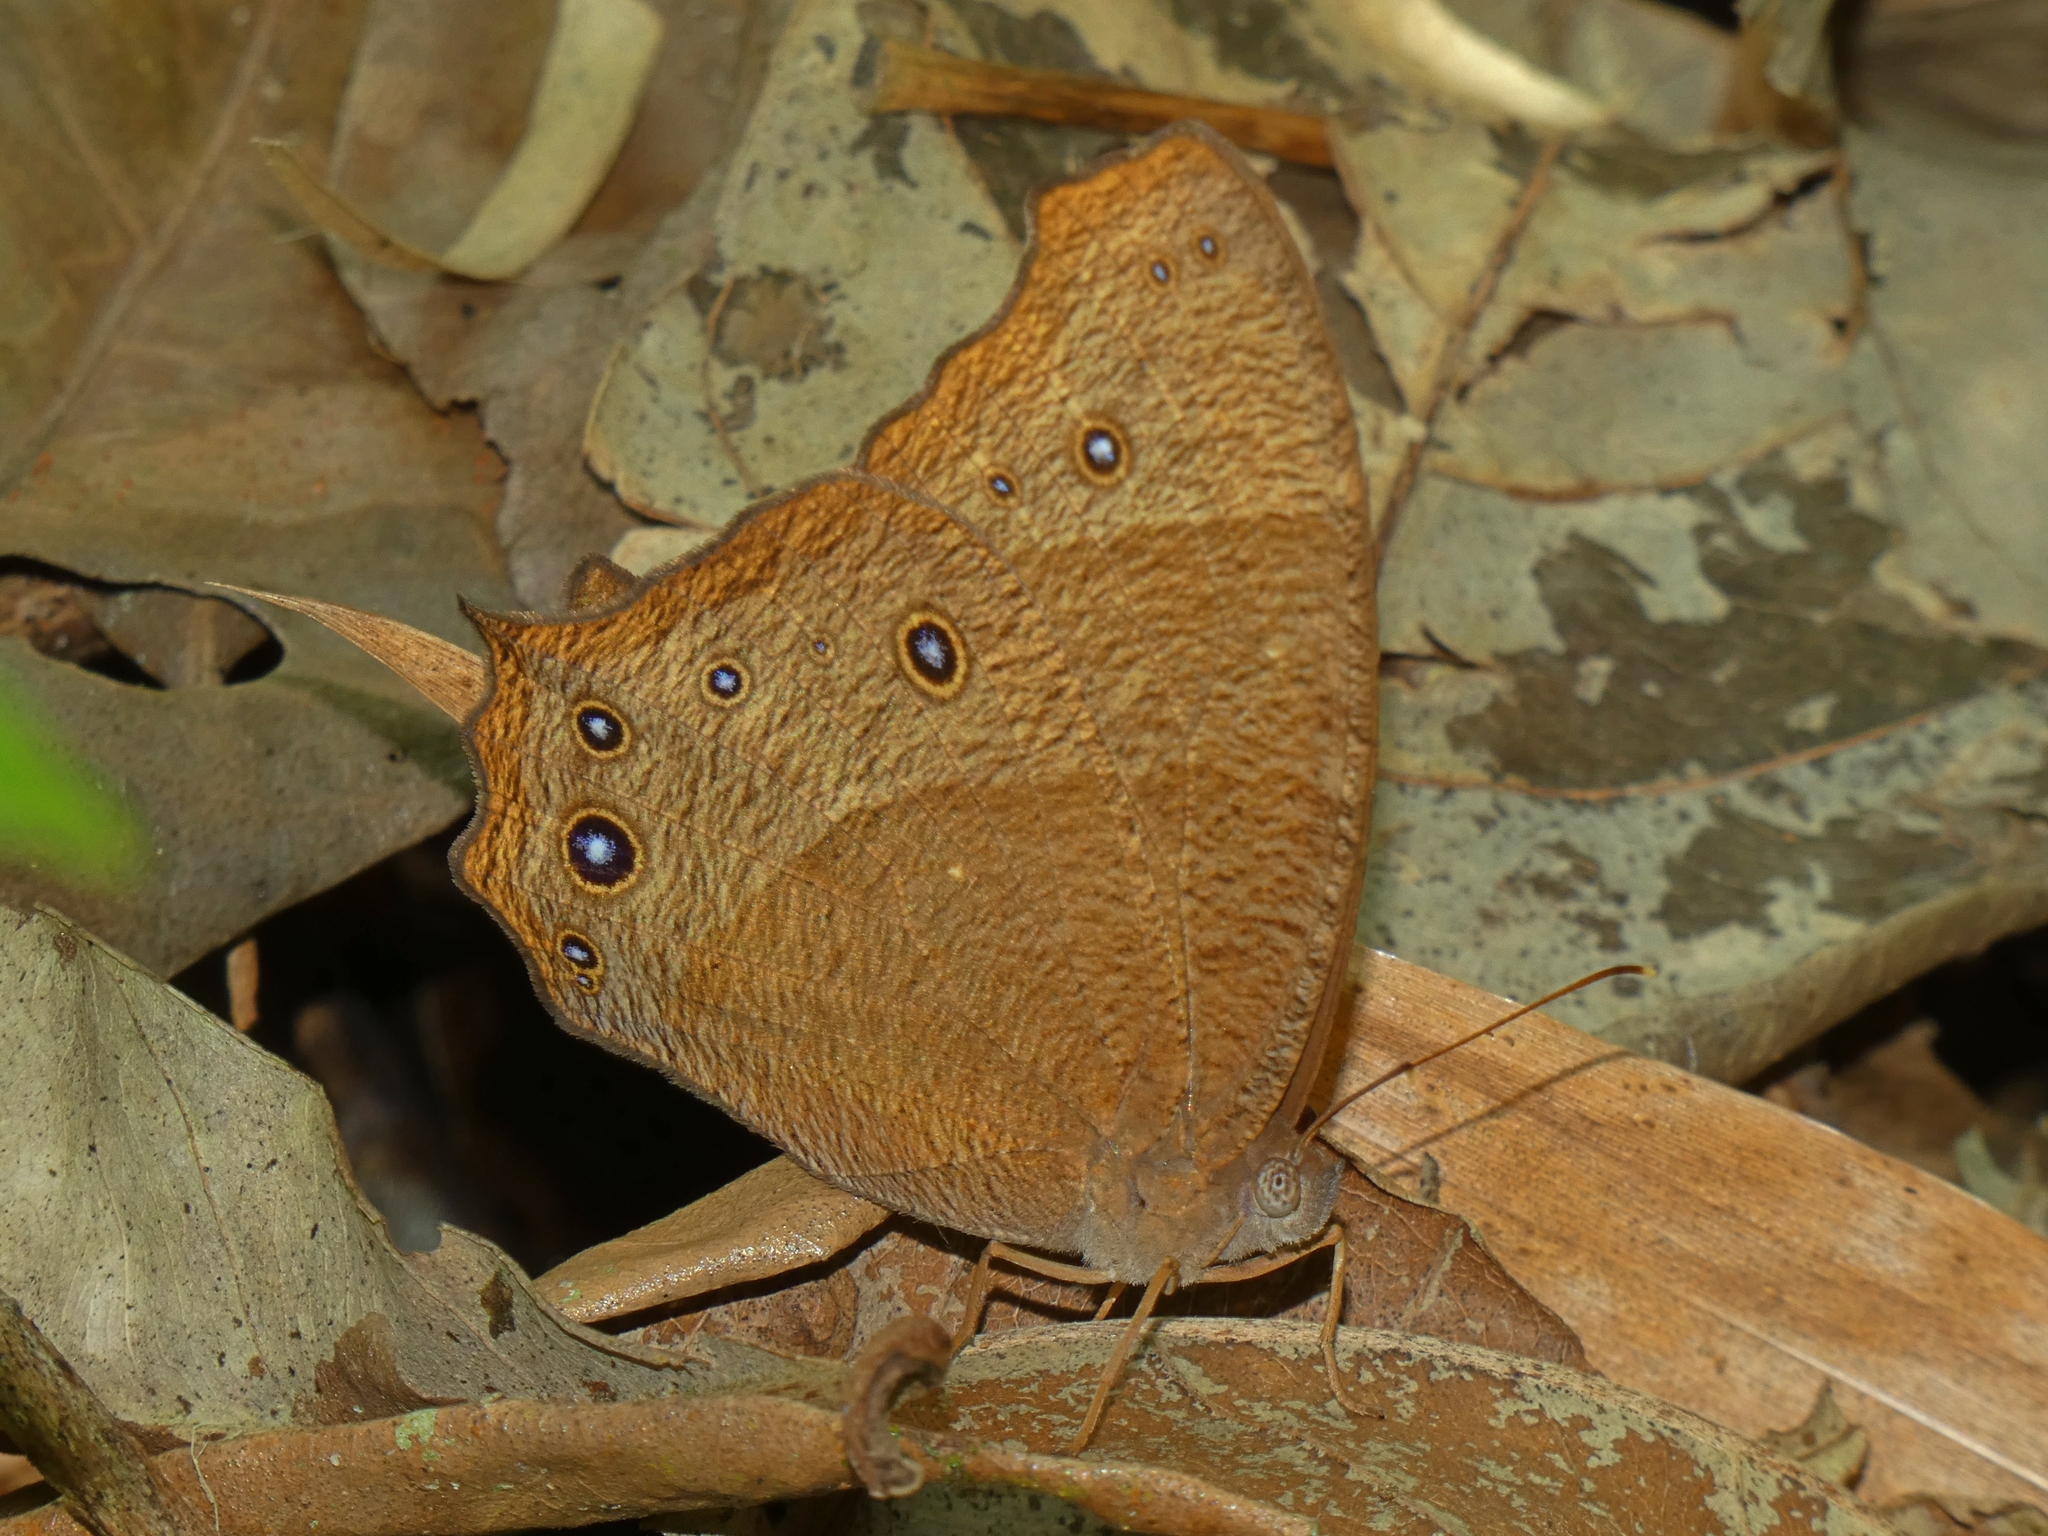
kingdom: Animalia
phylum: Arthropoda
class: Insecta
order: Lepidoptera
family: Nymphalidae
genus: Melanitis
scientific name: Melanitis leda
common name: Twilight brown
